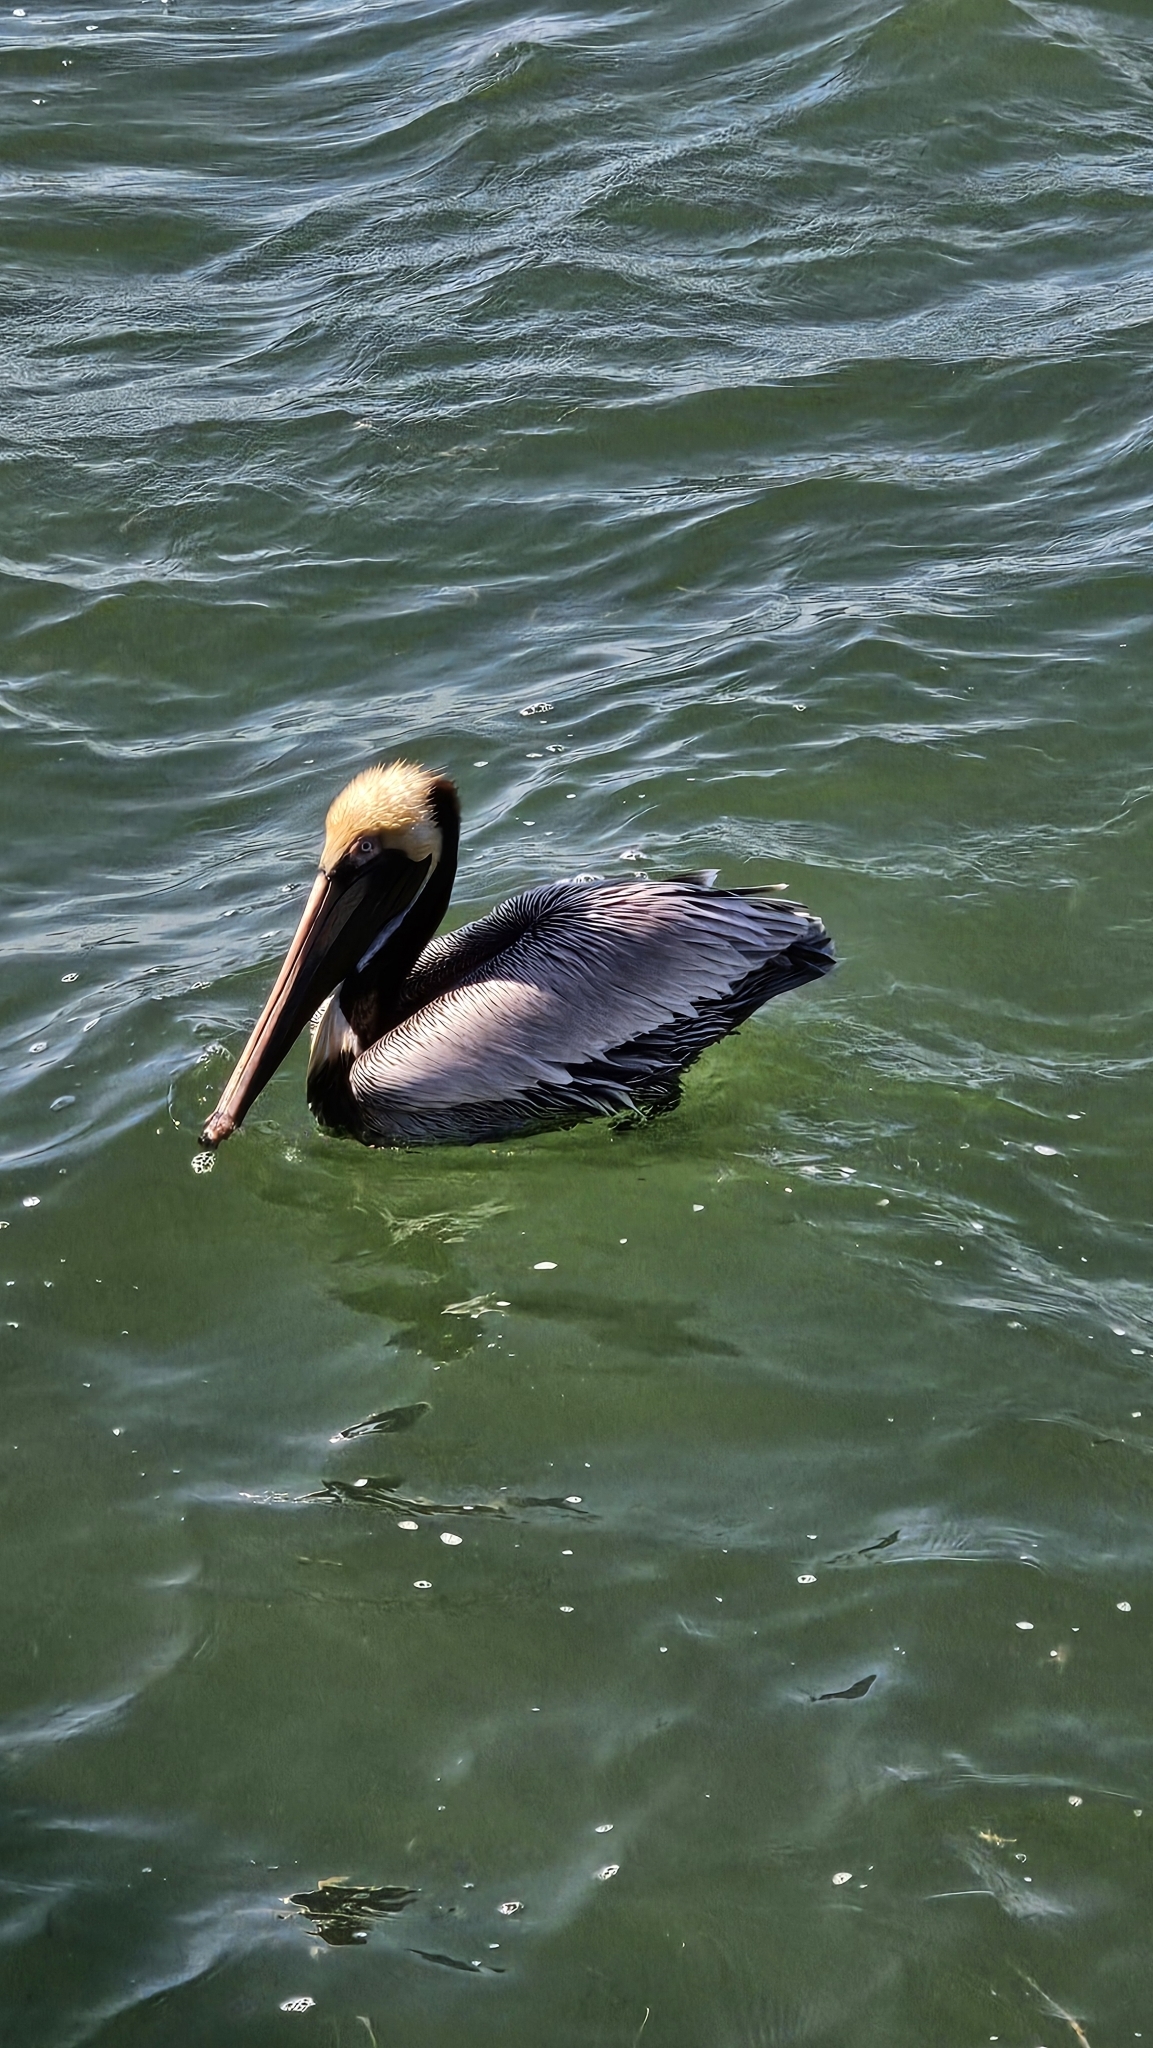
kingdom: Animalia
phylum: Chordata
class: Aves
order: Pelecaniformes
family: Pelecanidae
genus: Pelecanus
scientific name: Pelecanus occidentalis
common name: Brown pelican
